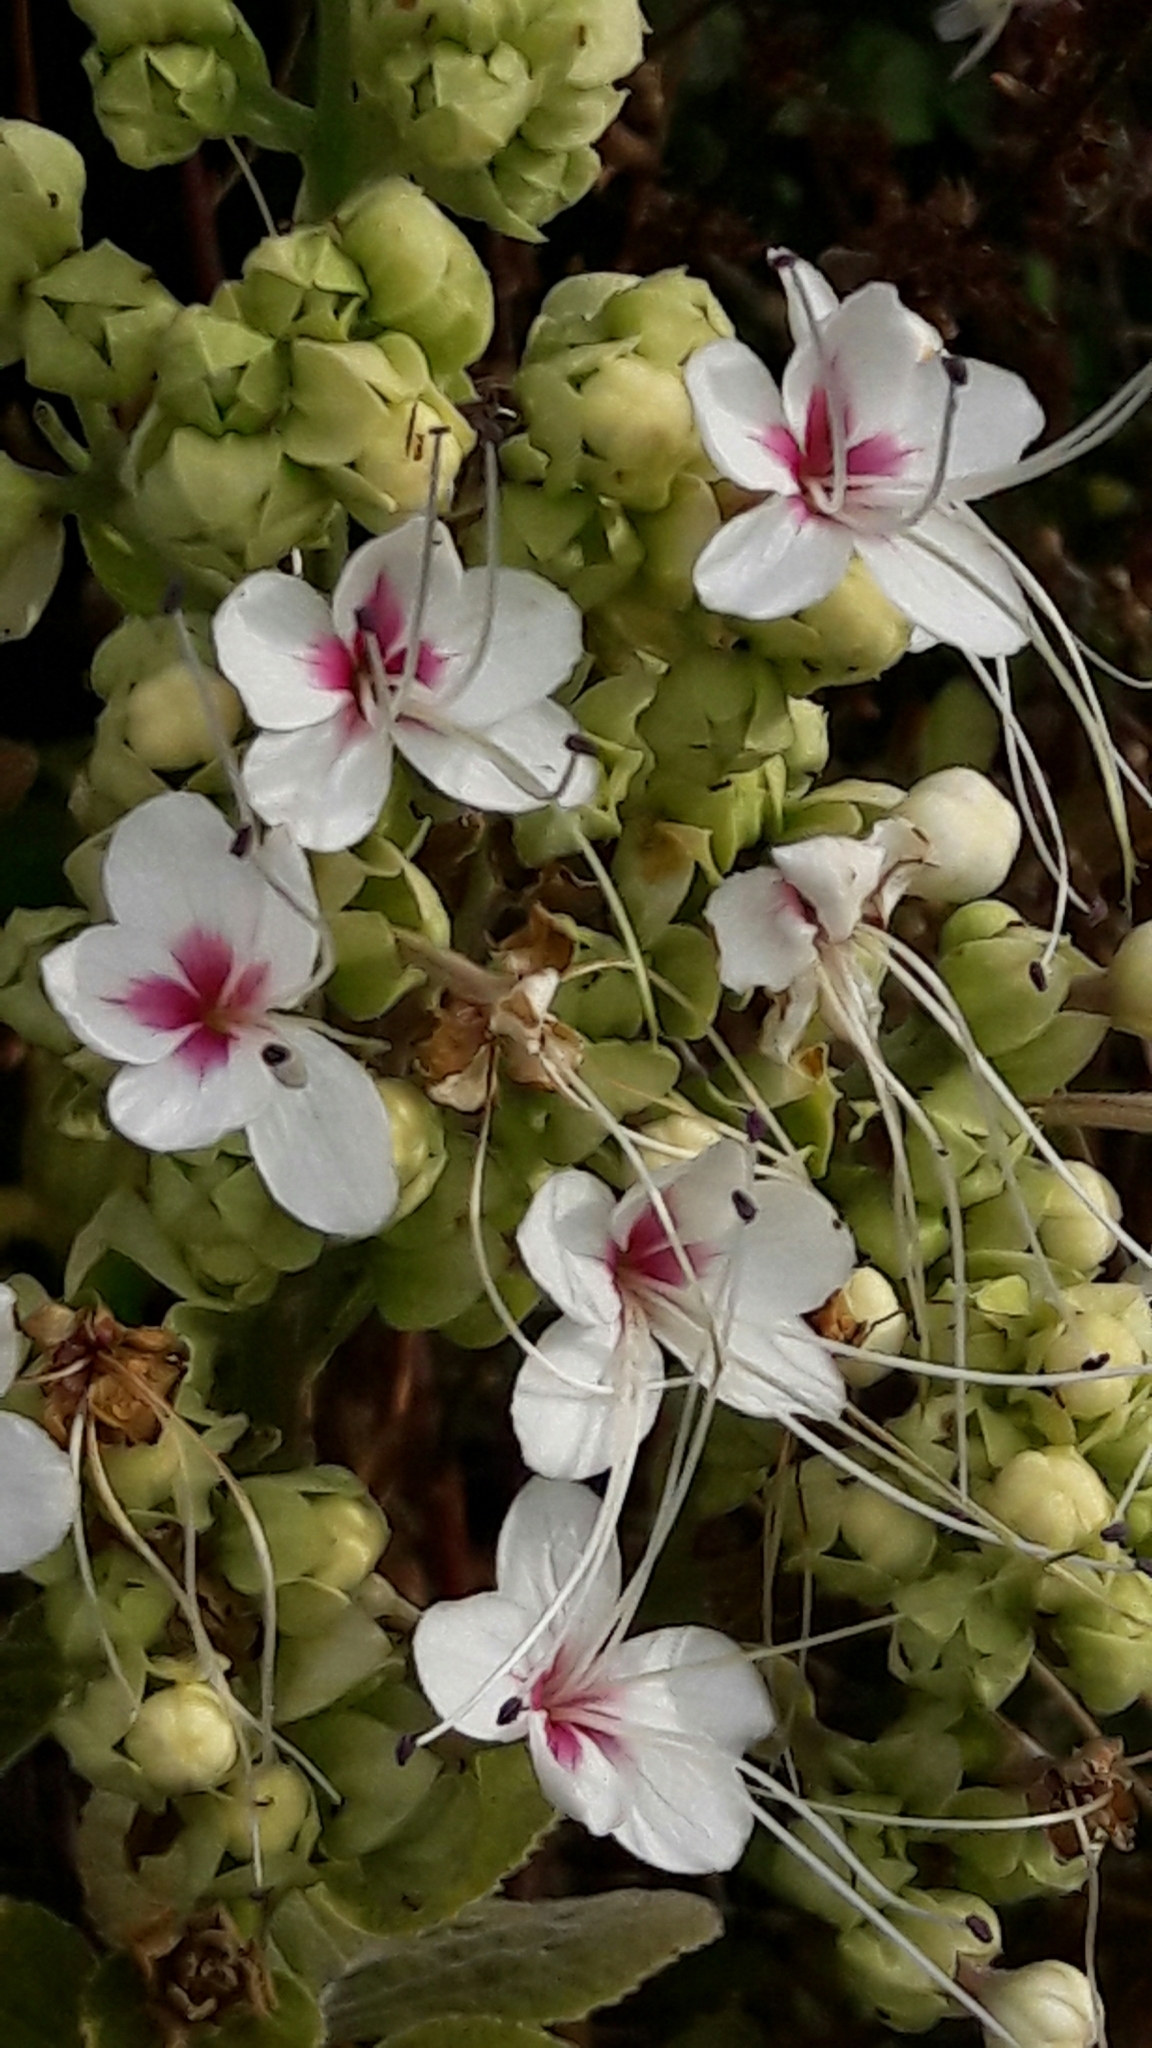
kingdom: Plantae
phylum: Tracheophyta
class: Magnoliopsida
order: Lamiales
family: Lamiaceae
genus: Clerodendrum
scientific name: Clerodendrum infortunatum
